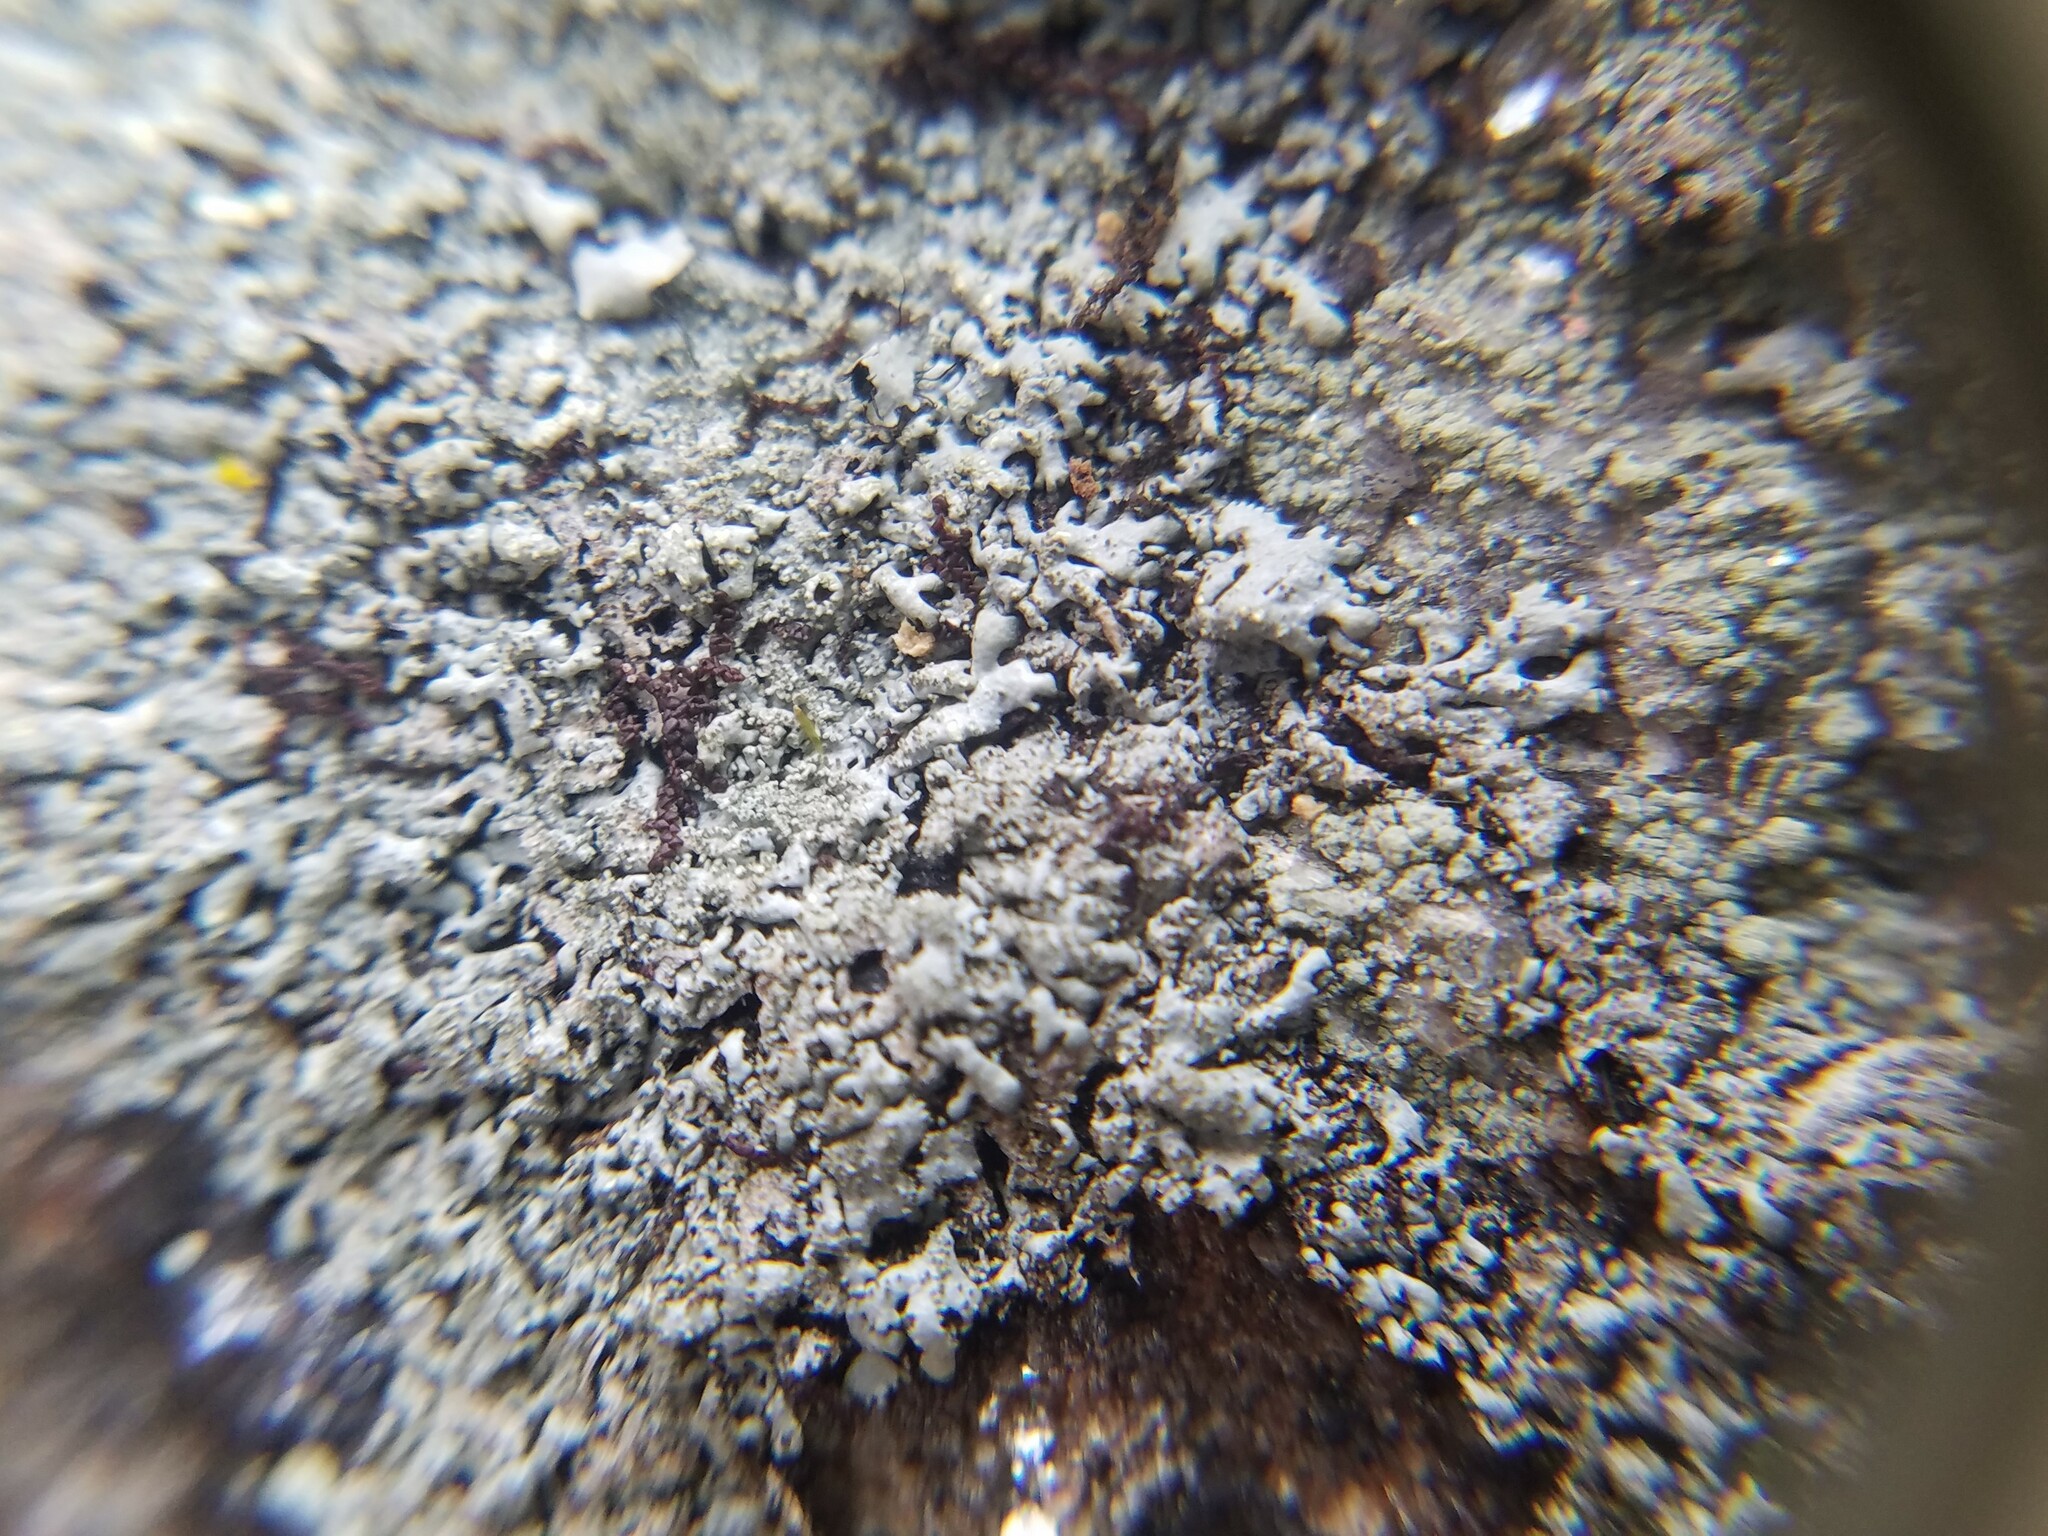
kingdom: Fungi
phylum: Ascomycota
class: Lecanoromycetes
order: Lecanorales
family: Parmeliaceae
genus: Myelochroa
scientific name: Myelochroa obsessa
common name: Rock axil-bristle lichen
